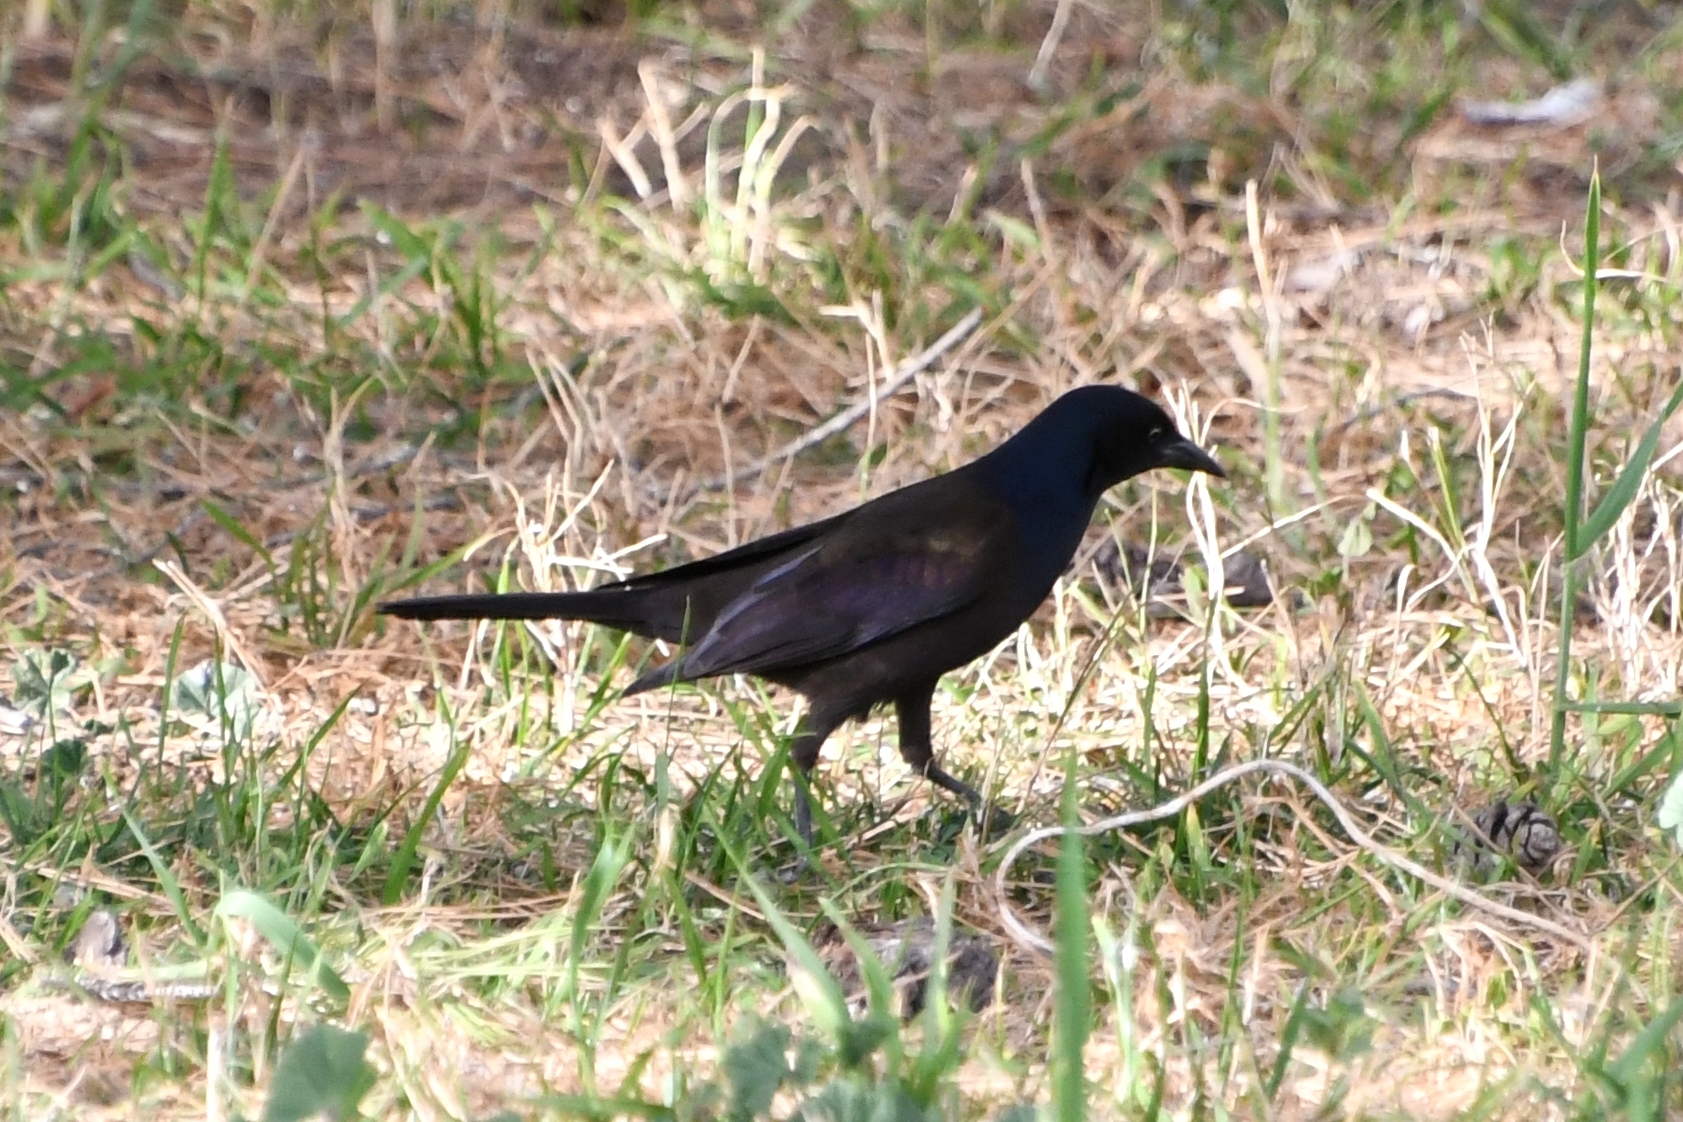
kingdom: Animalia
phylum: Chordata
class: Aves
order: Passeriformes
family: Icteridae
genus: Quiscalus
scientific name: Quiscalus quiscula
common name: Common grackle
